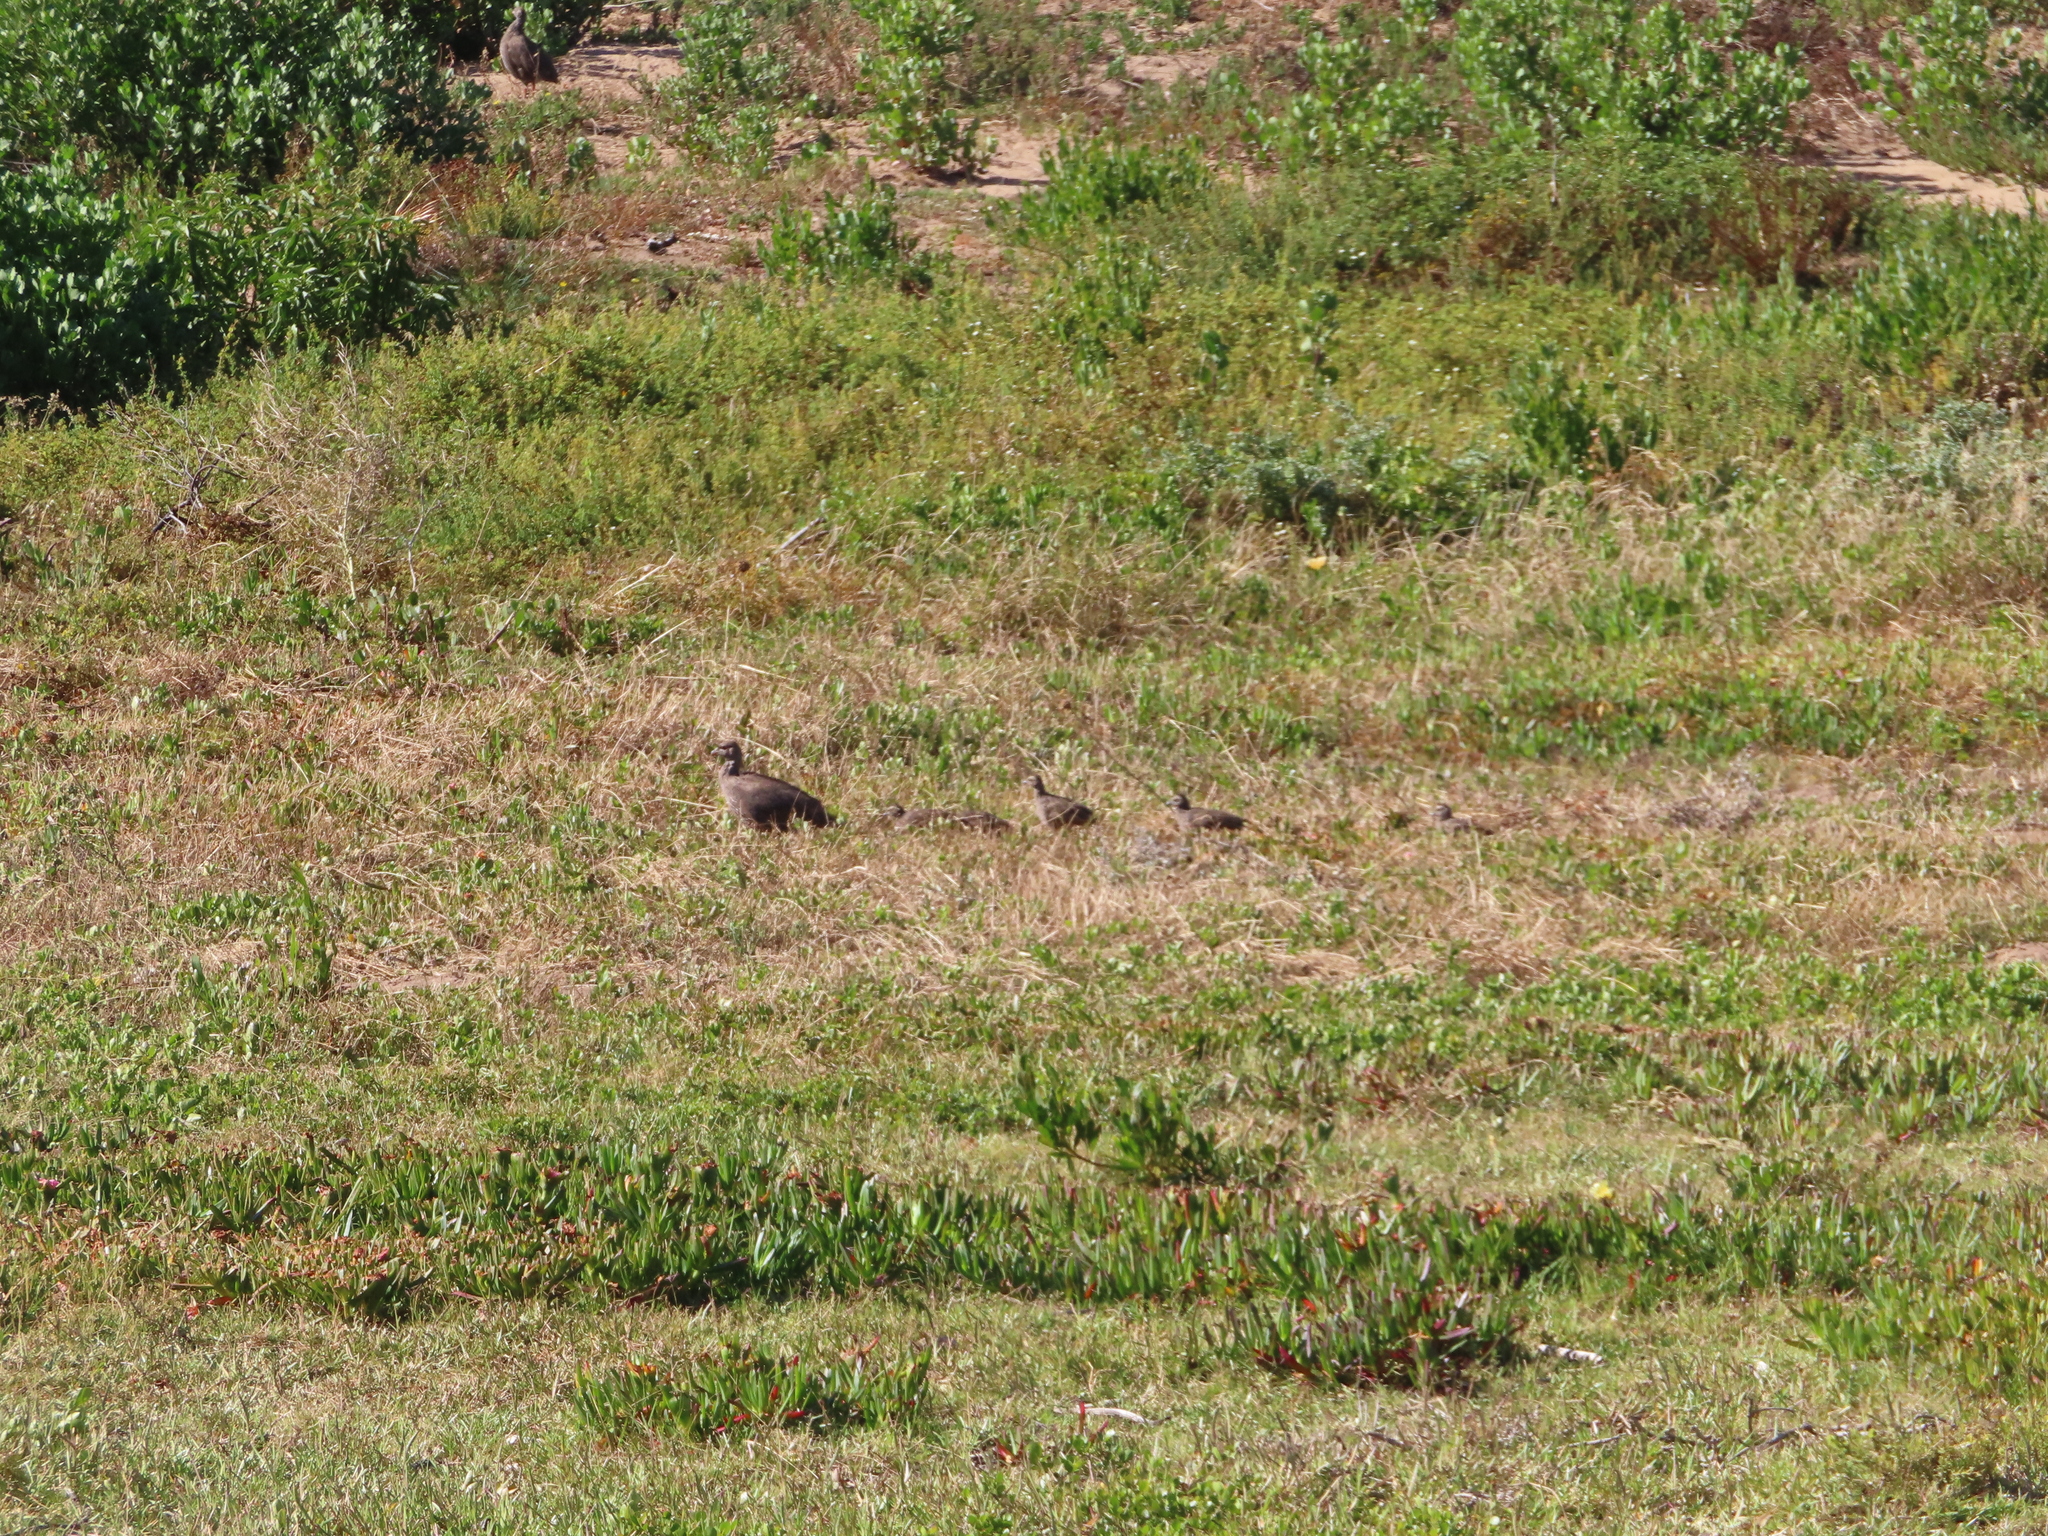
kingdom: Animalia
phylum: Chordata
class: Aves
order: Galliformes
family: Phasianidae
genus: Pternistis
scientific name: Pternistis capensis
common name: Cape spurfowl
